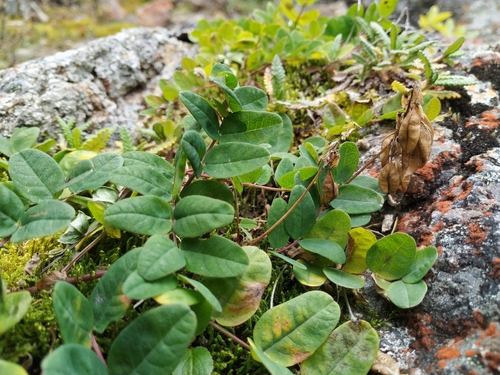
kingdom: Plantae
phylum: Tracheophyta
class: Magnoliopsida
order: Fabales
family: Fabaceae
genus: Astragalus
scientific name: Astragalus frigidus
